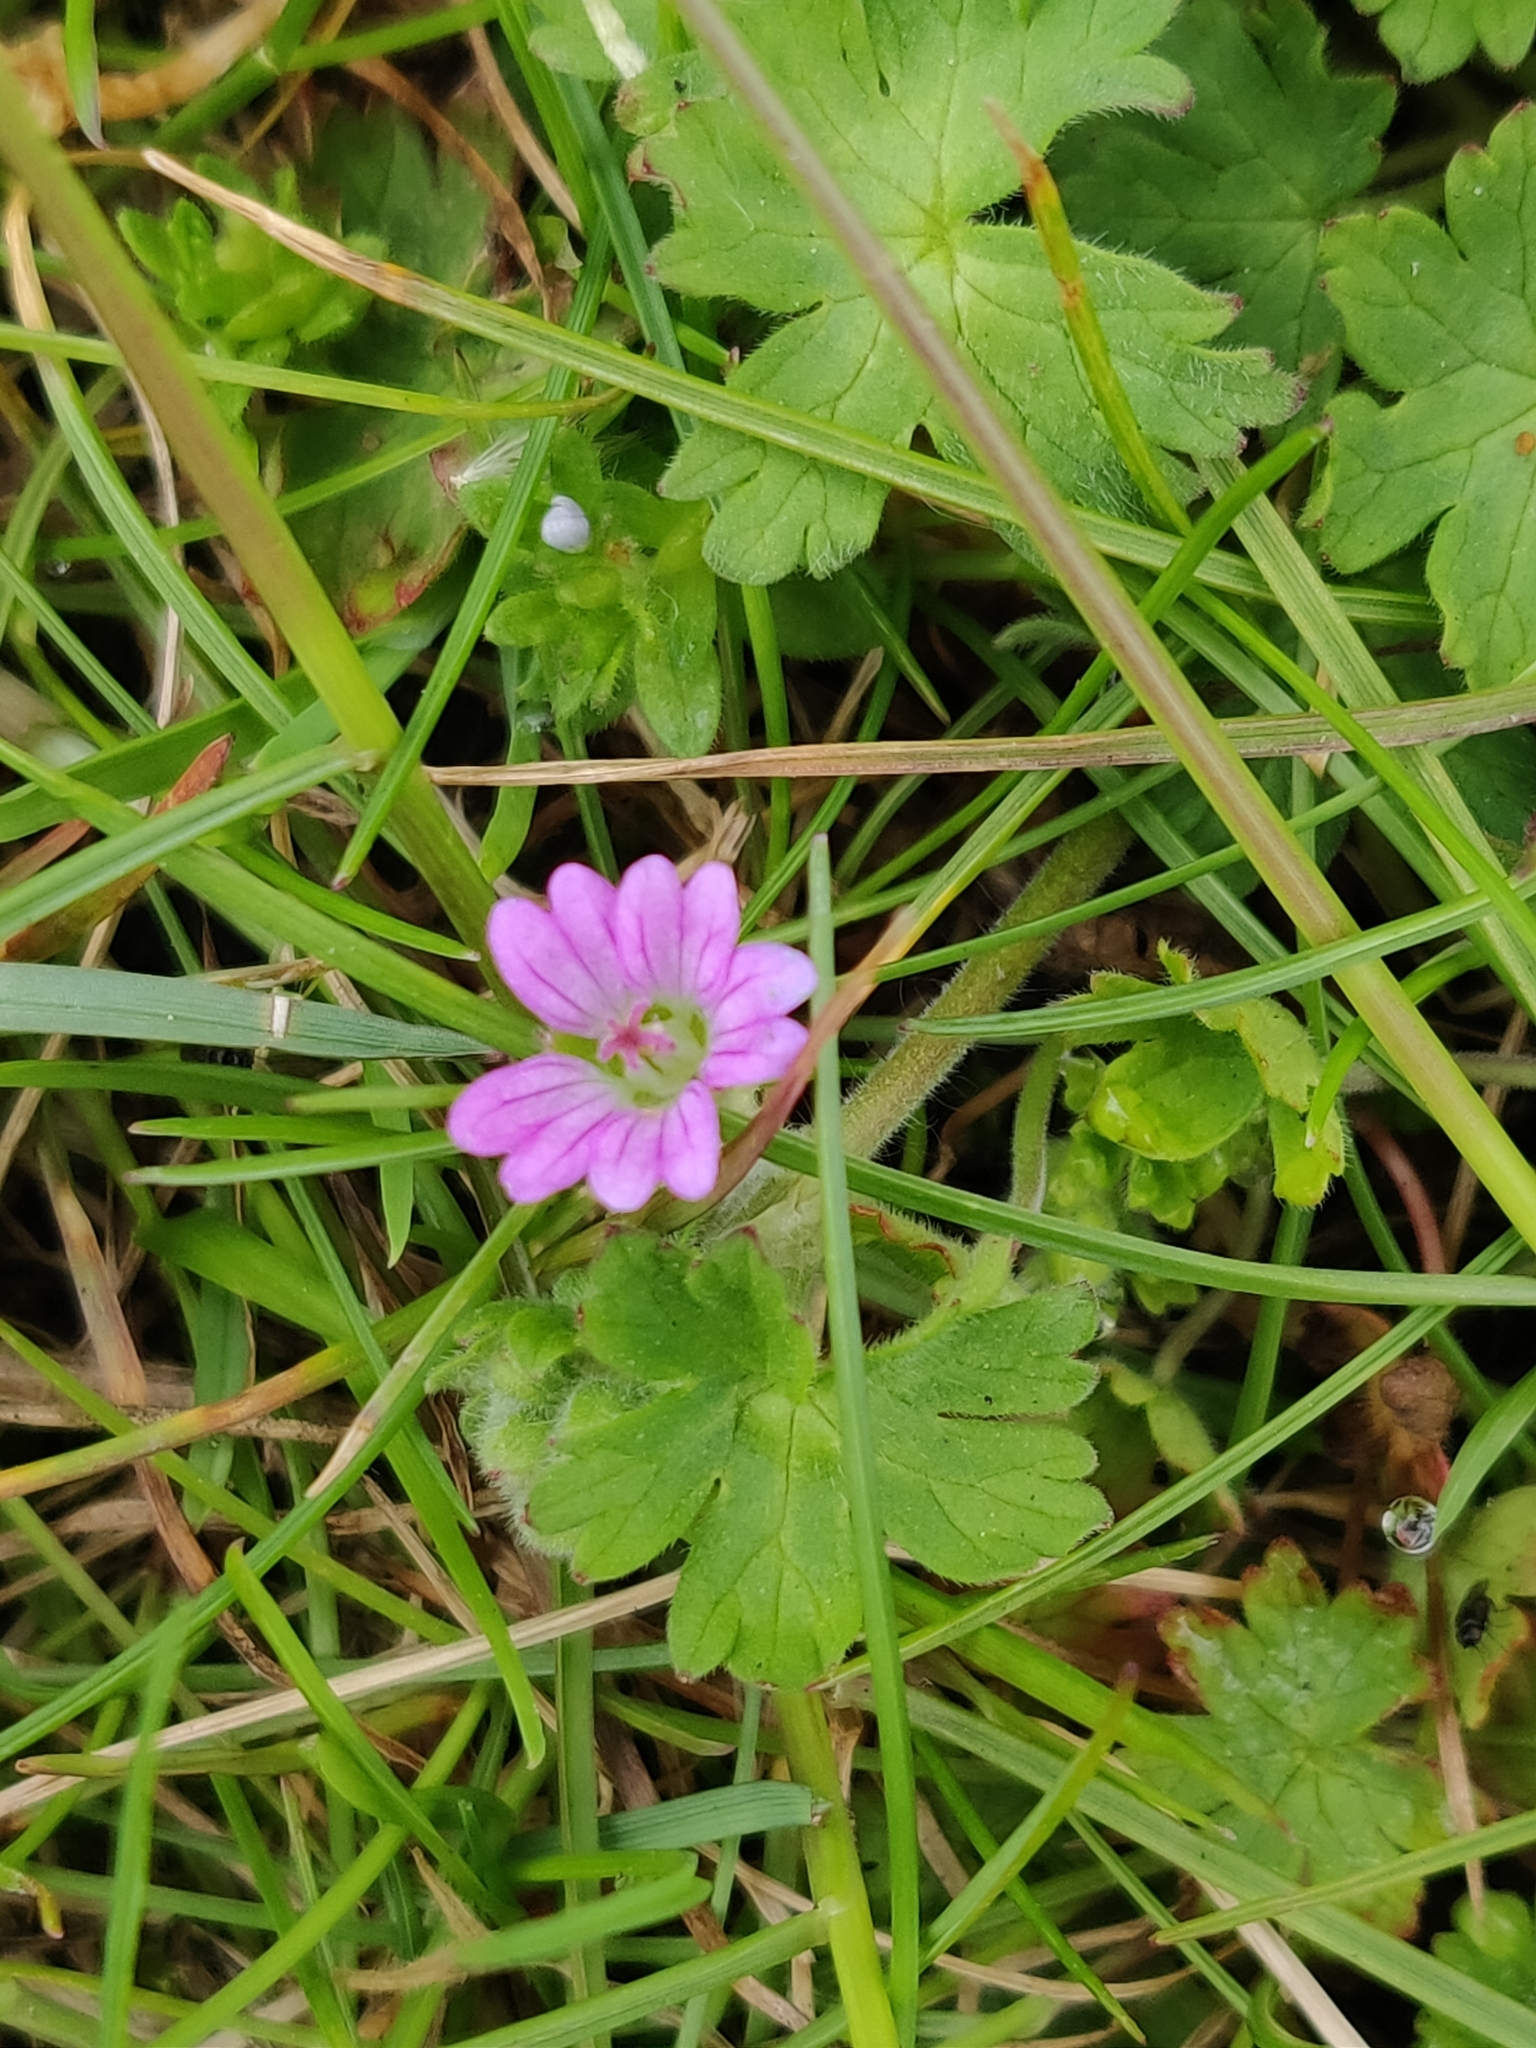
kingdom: Plantae
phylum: Tracheophyta
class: Magnoliopsida
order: Geraniales
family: Geraniaceae
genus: Geranium
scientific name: Geranium molle
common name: Dove's-foot crane's-bill
